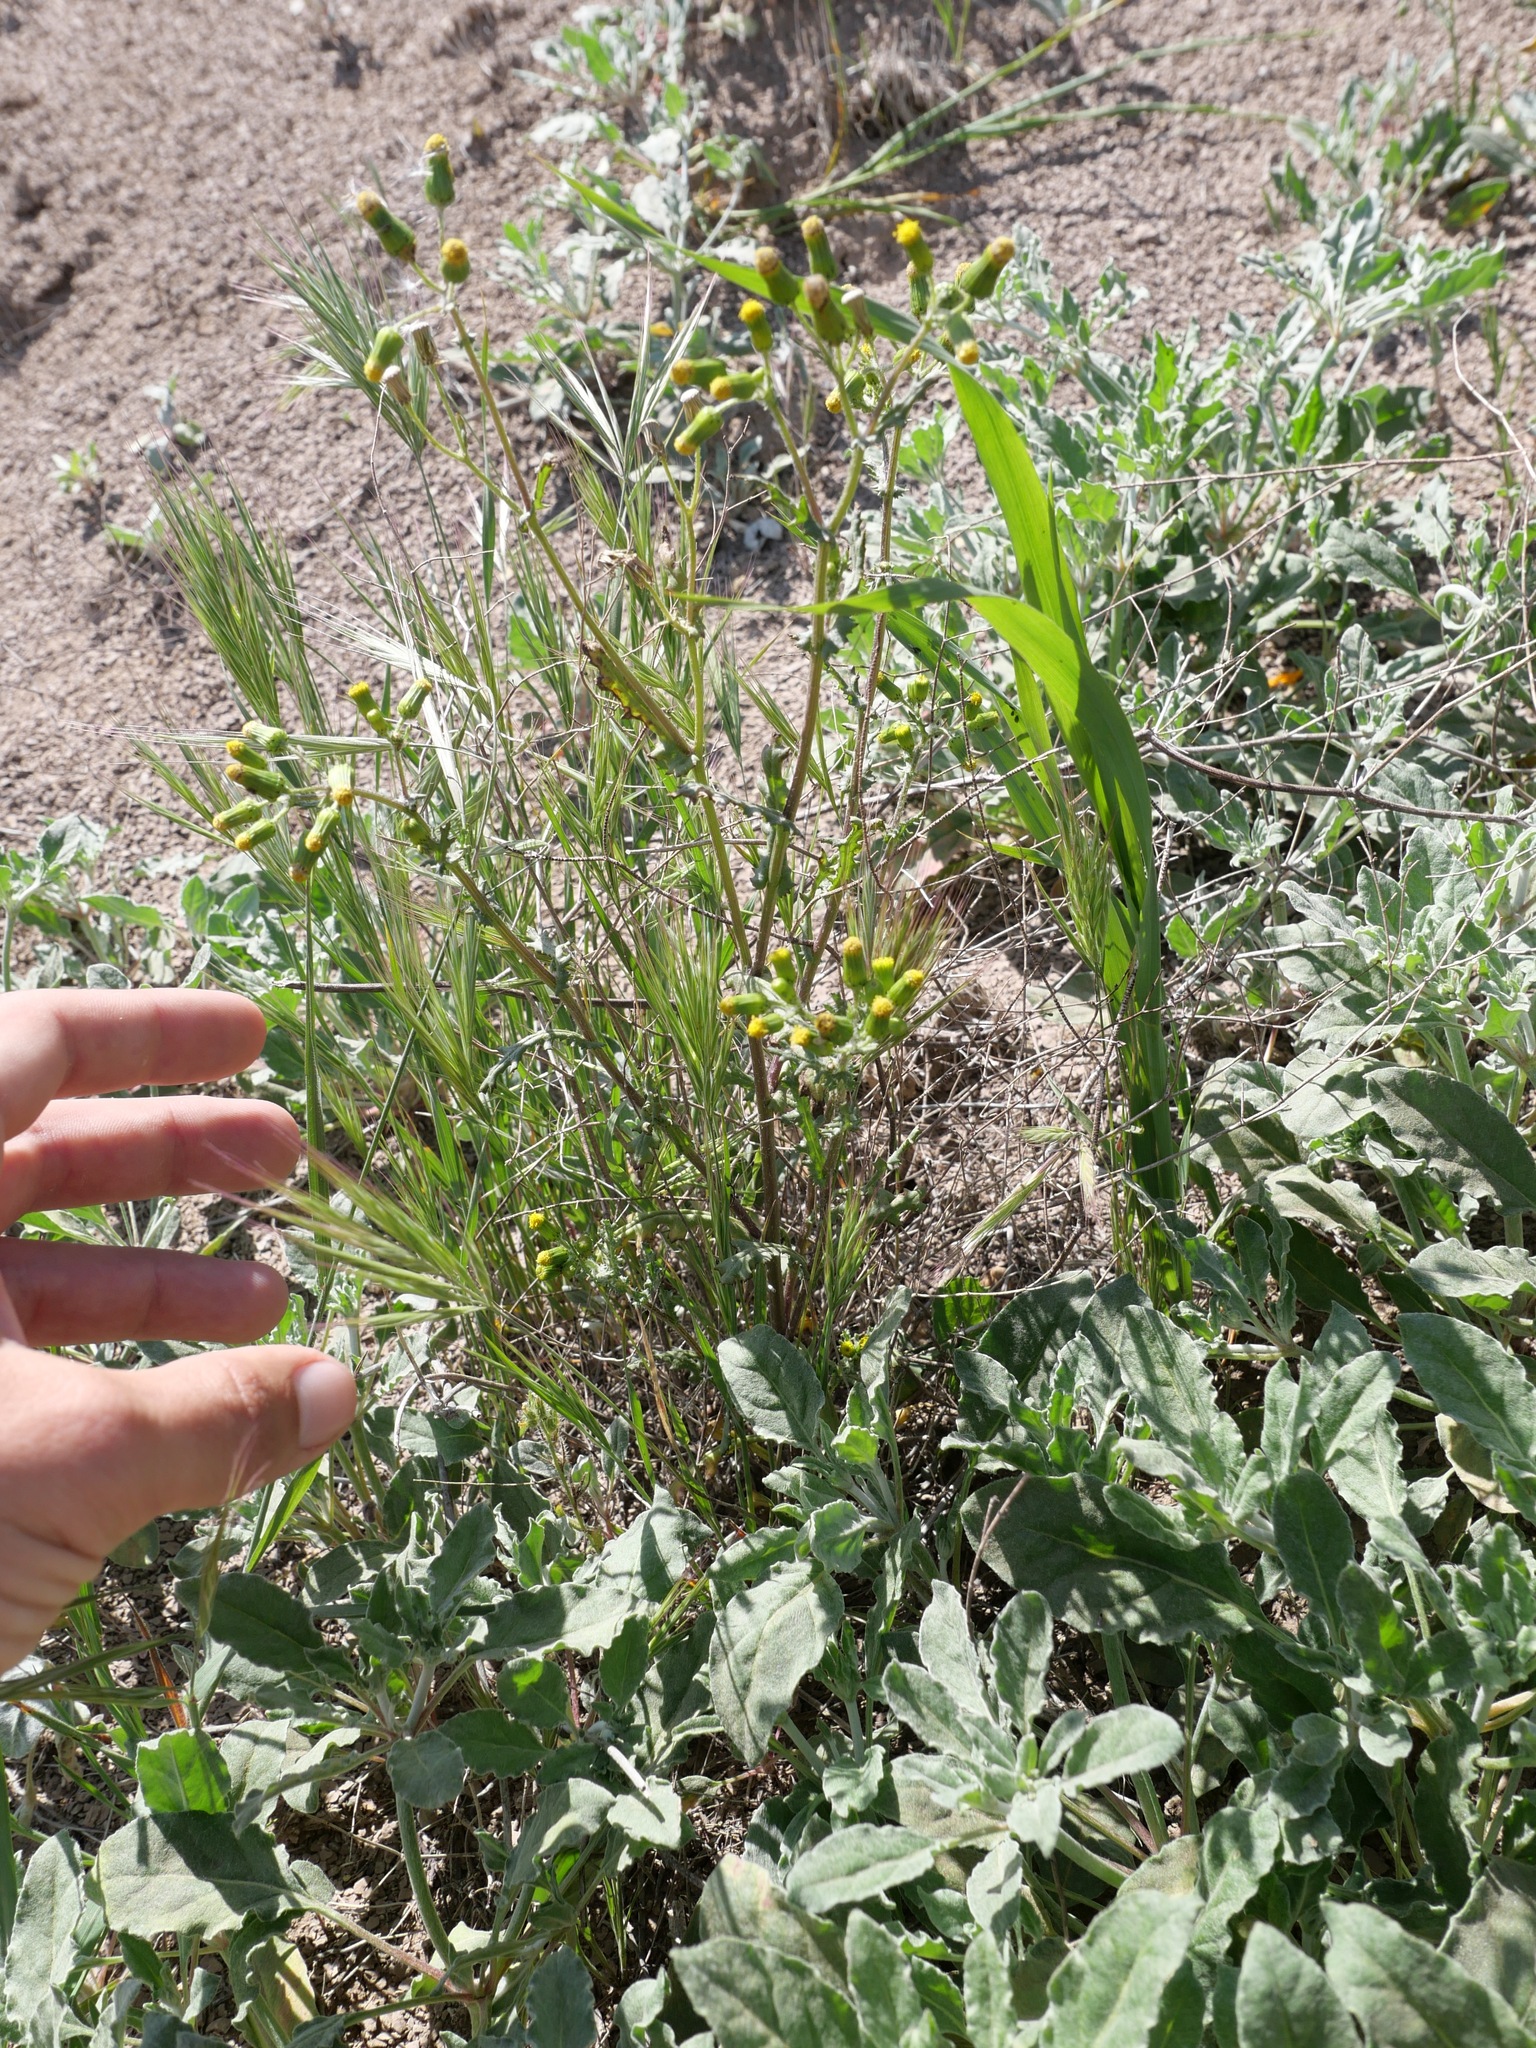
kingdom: Plantae
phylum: Tracheophyta
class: Magnoliopsida
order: Asterales
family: Asteraceae
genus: Senecio
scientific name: Senecio vulgaris
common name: Old-man-in-the-spring
